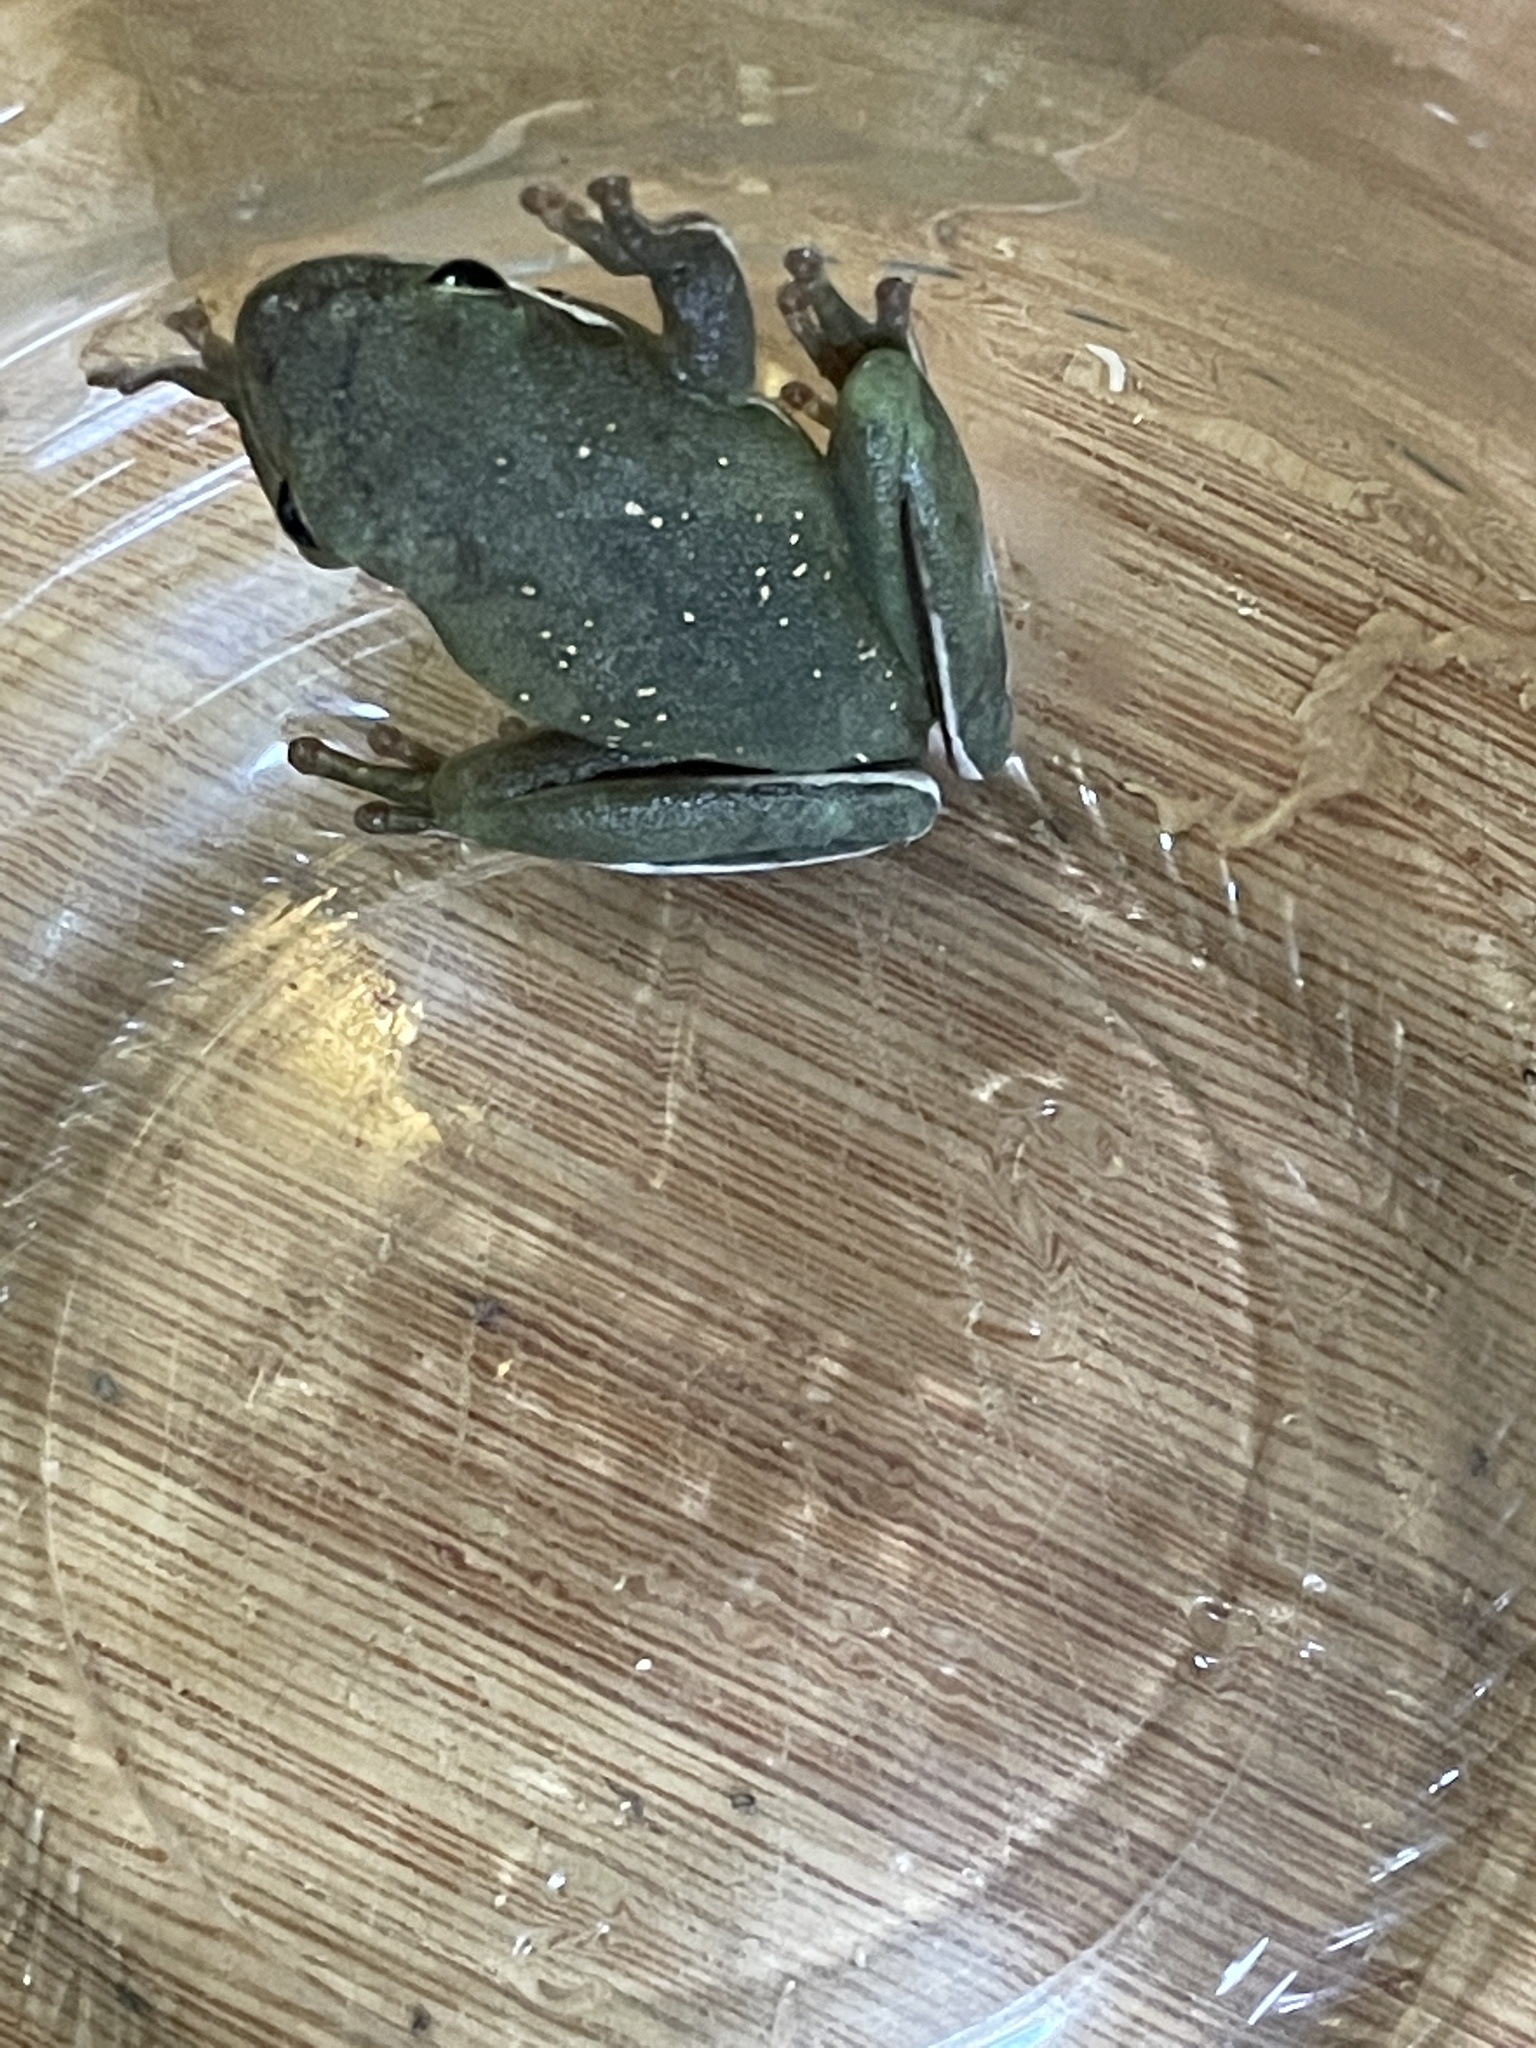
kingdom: Animalia
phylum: Chordata
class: Amphibia
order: Anura
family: Hylidae
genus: Dryophytes
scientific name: Dryophytes cinereus
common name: Green treefrog
